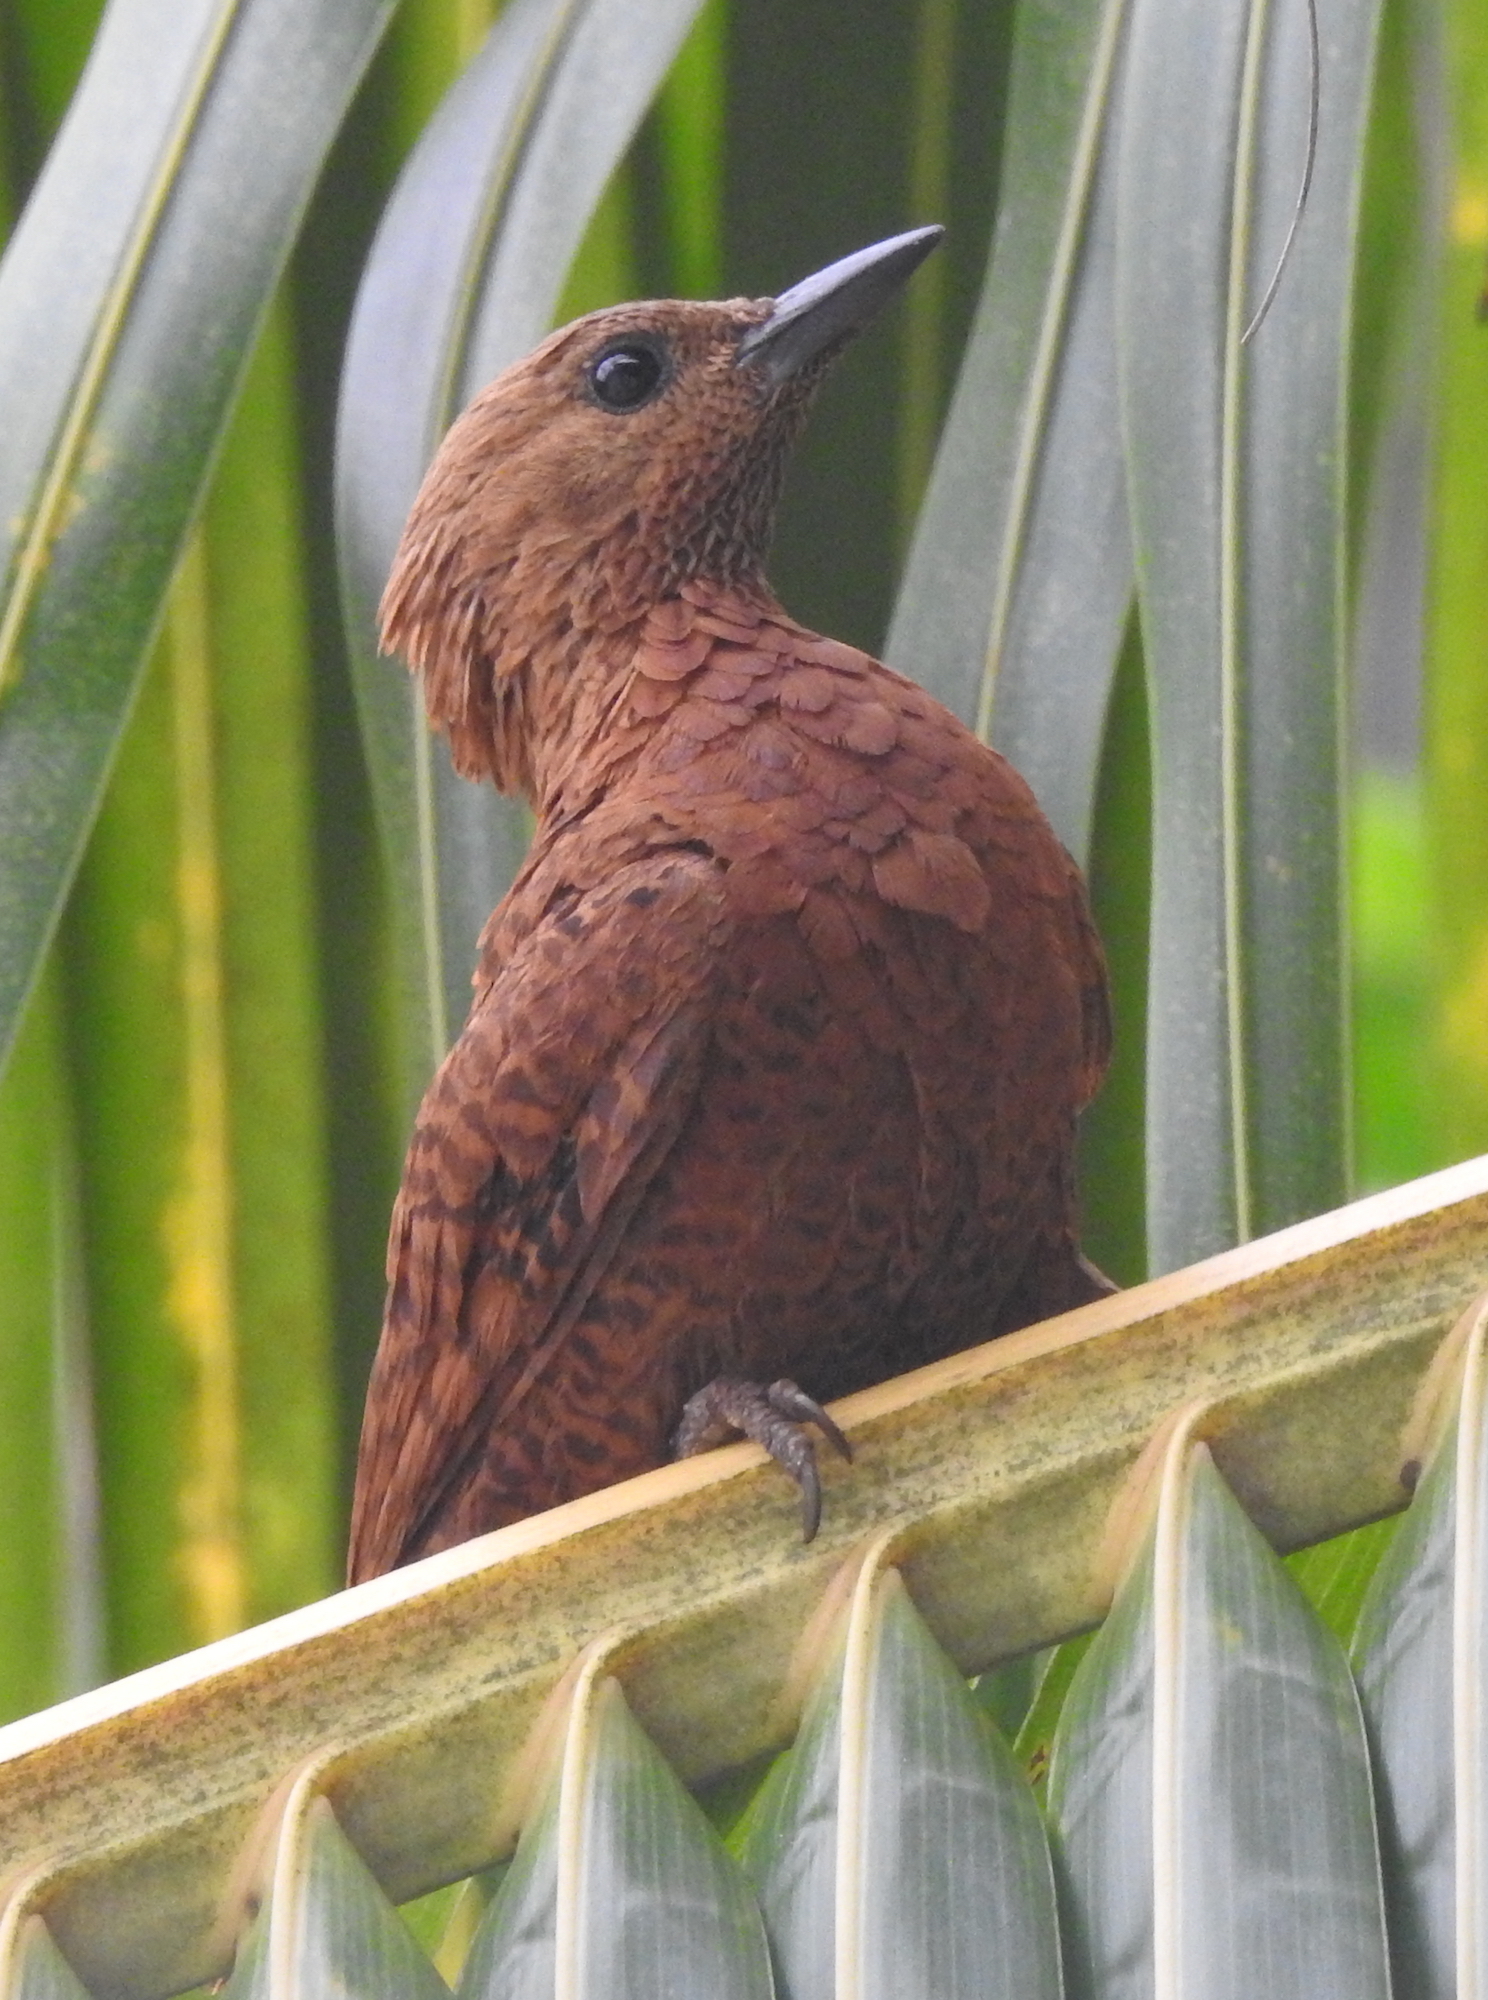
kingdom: Animalia
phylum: Chordata
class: Aves
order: Piciformes
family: Picidae
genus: Micropternus
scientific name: Micropternus brachyurus
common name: Rufous woodpecker
